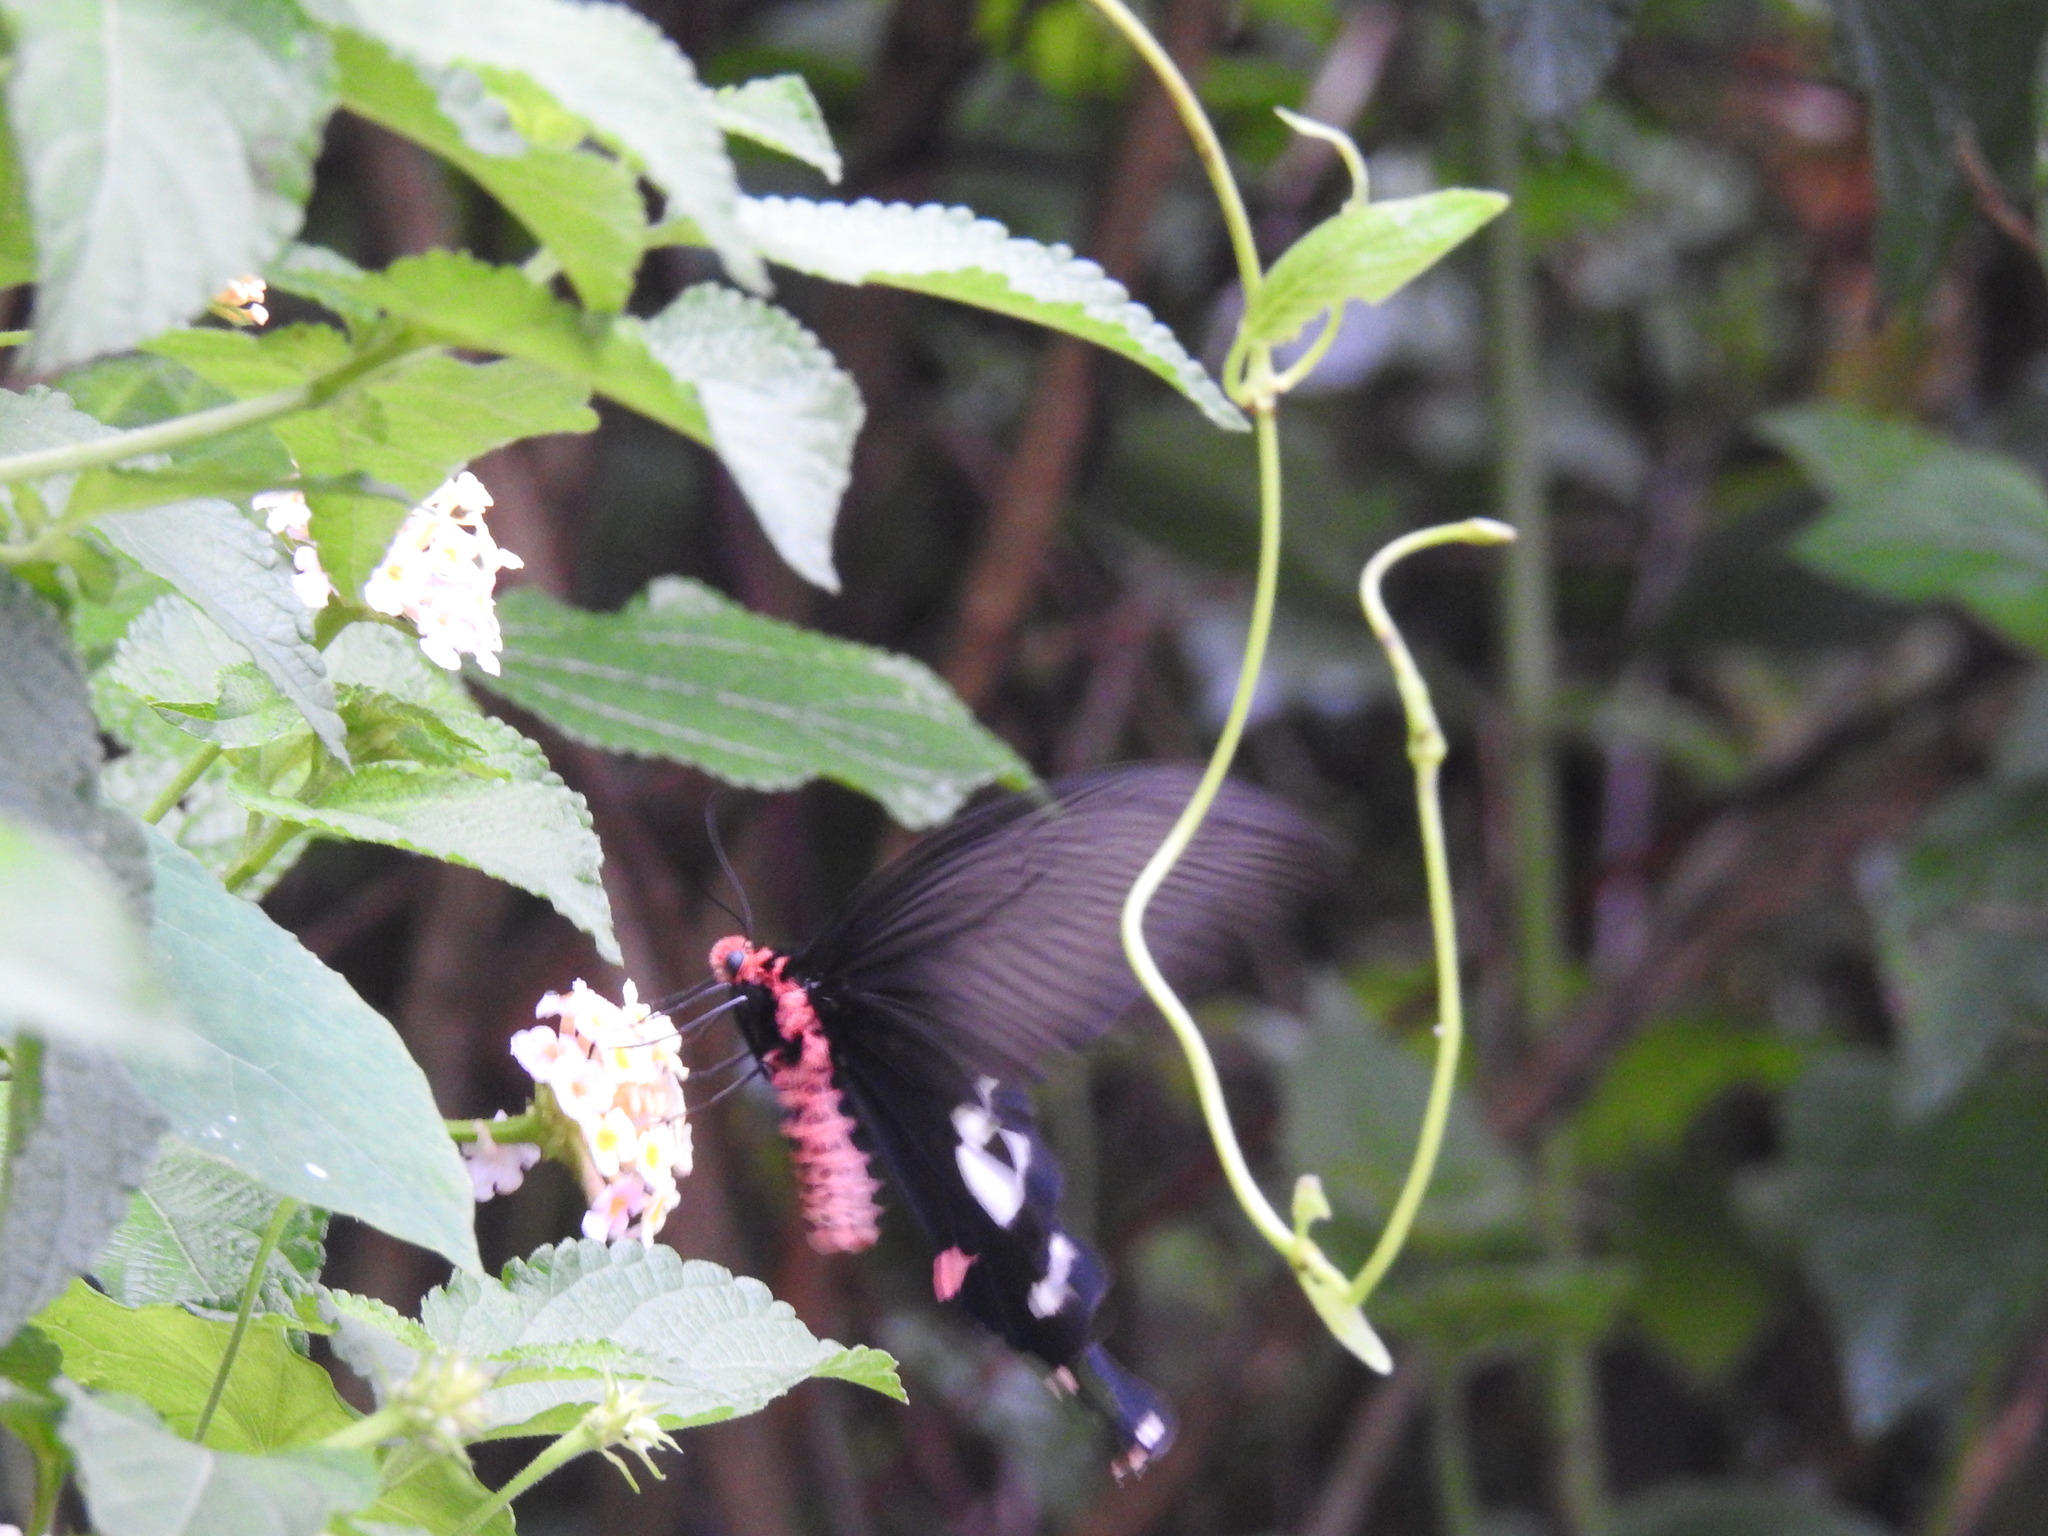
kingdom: Animalia
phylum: Arthropoda
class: Insecta
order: Lepidoptera
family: Papilionidae
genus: Byasa
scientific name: Byasa dasarada
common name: Great windmill
